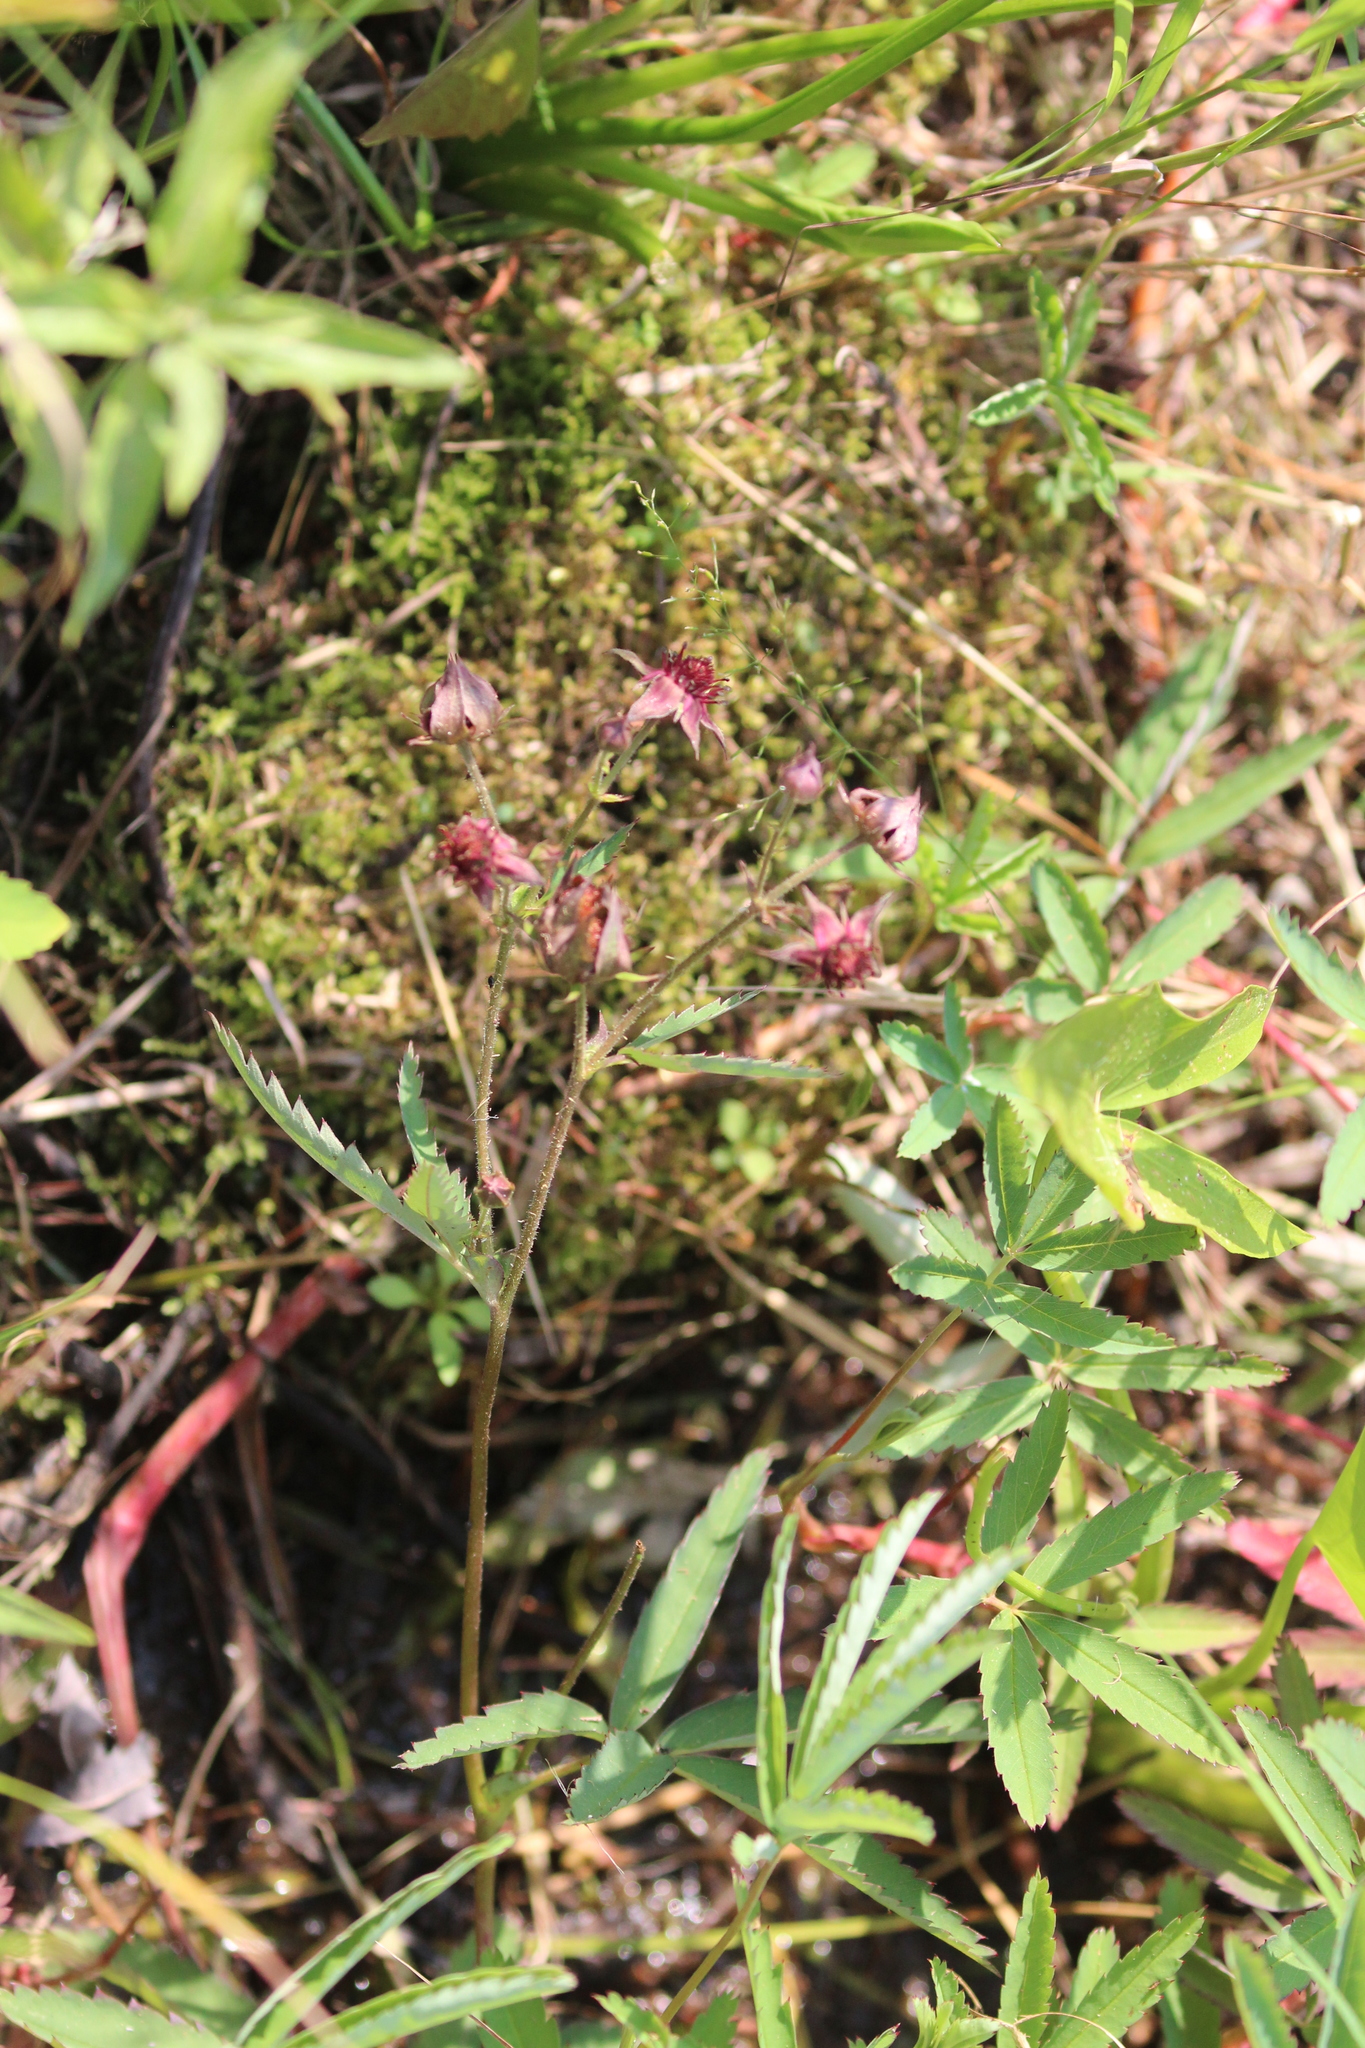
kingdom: Plantae
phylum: Tracheophyta
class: Magnoliopsida
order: Rosales
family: Rosaceae
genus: Comarum
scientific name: Comarum palustre
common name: Marsh cinquefoil
